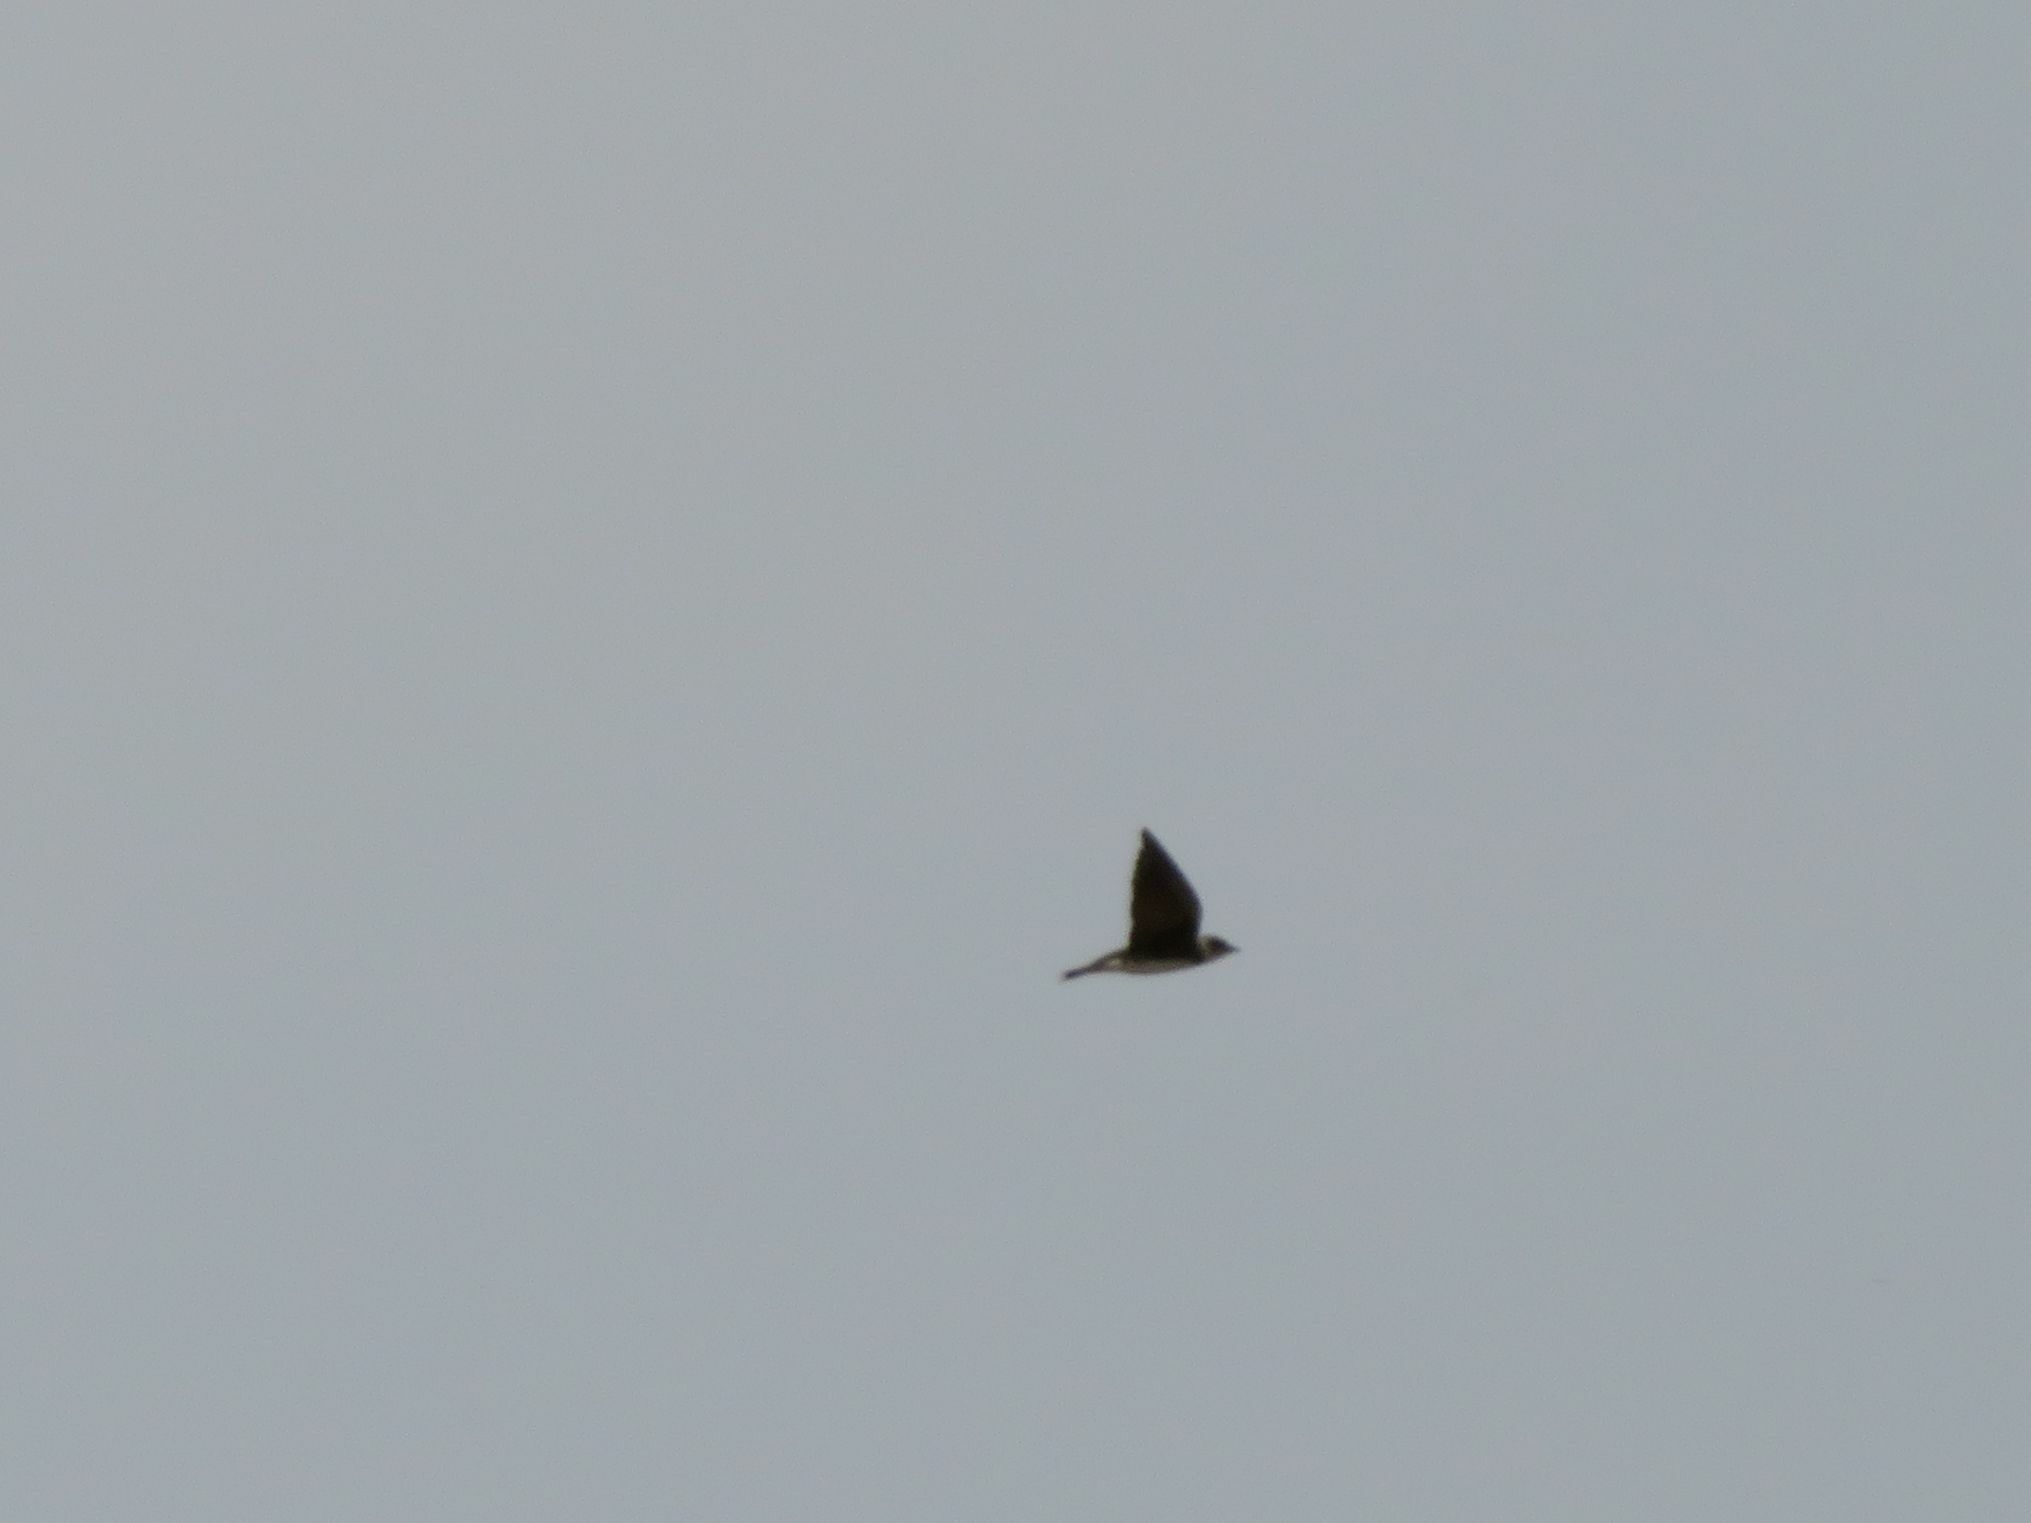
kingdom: Animalia
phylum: Chordata
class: Aves
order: Passeriformes
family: Hirundinidae
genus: Progne
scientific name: Progne tapera
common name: Brown-chested martin
